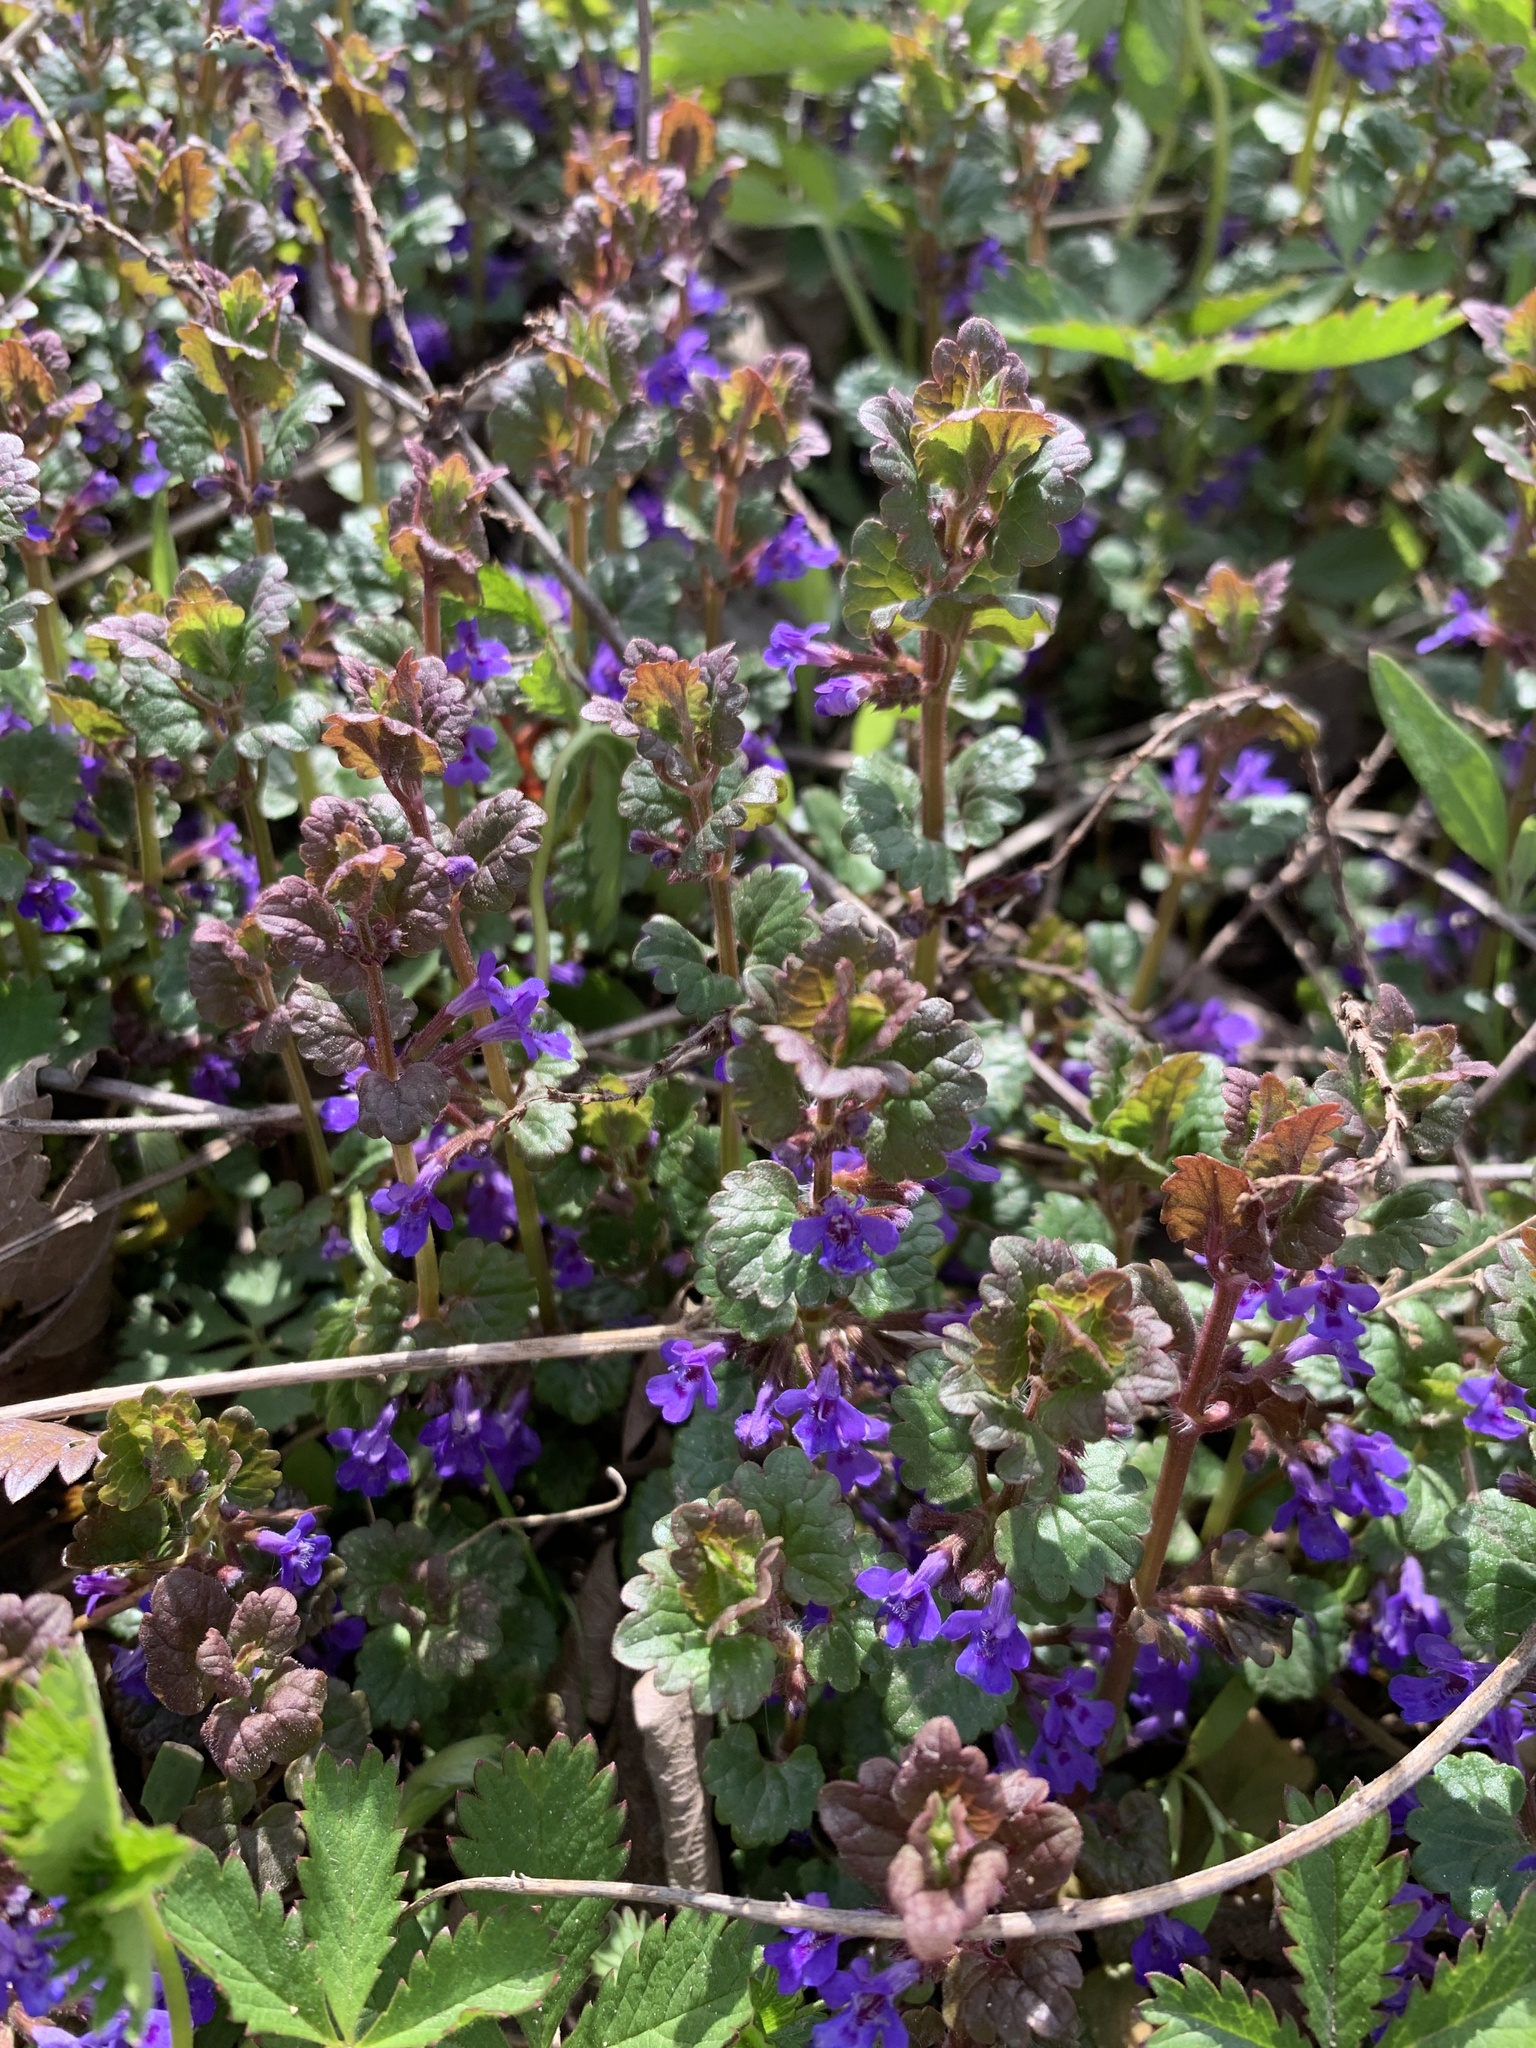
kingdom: Plantae
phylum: Tracheophyta
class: Magnoliopsida
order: Lamiales
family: Lamiaceae
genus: Glechoma
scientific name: Glechoma hederacea
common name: Ground ivy
